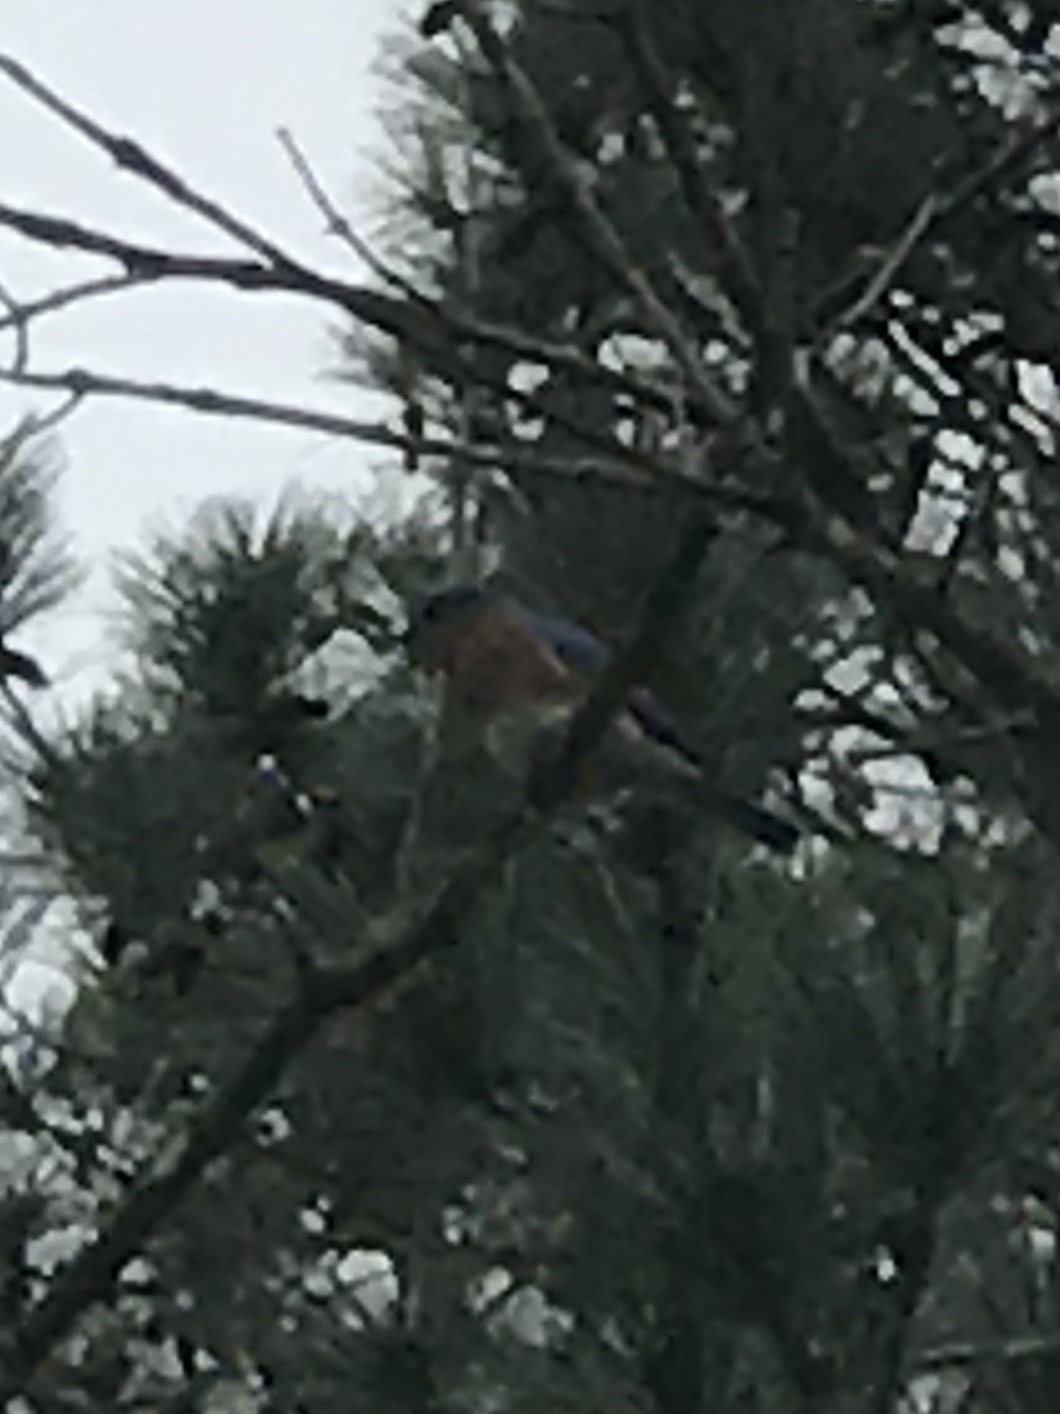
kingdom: Animalia
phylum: Chordata
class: Aves
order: Passeriformes
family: Turdidae
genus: Sialia
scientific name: Sialia sialis
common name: Eastern bluebird
